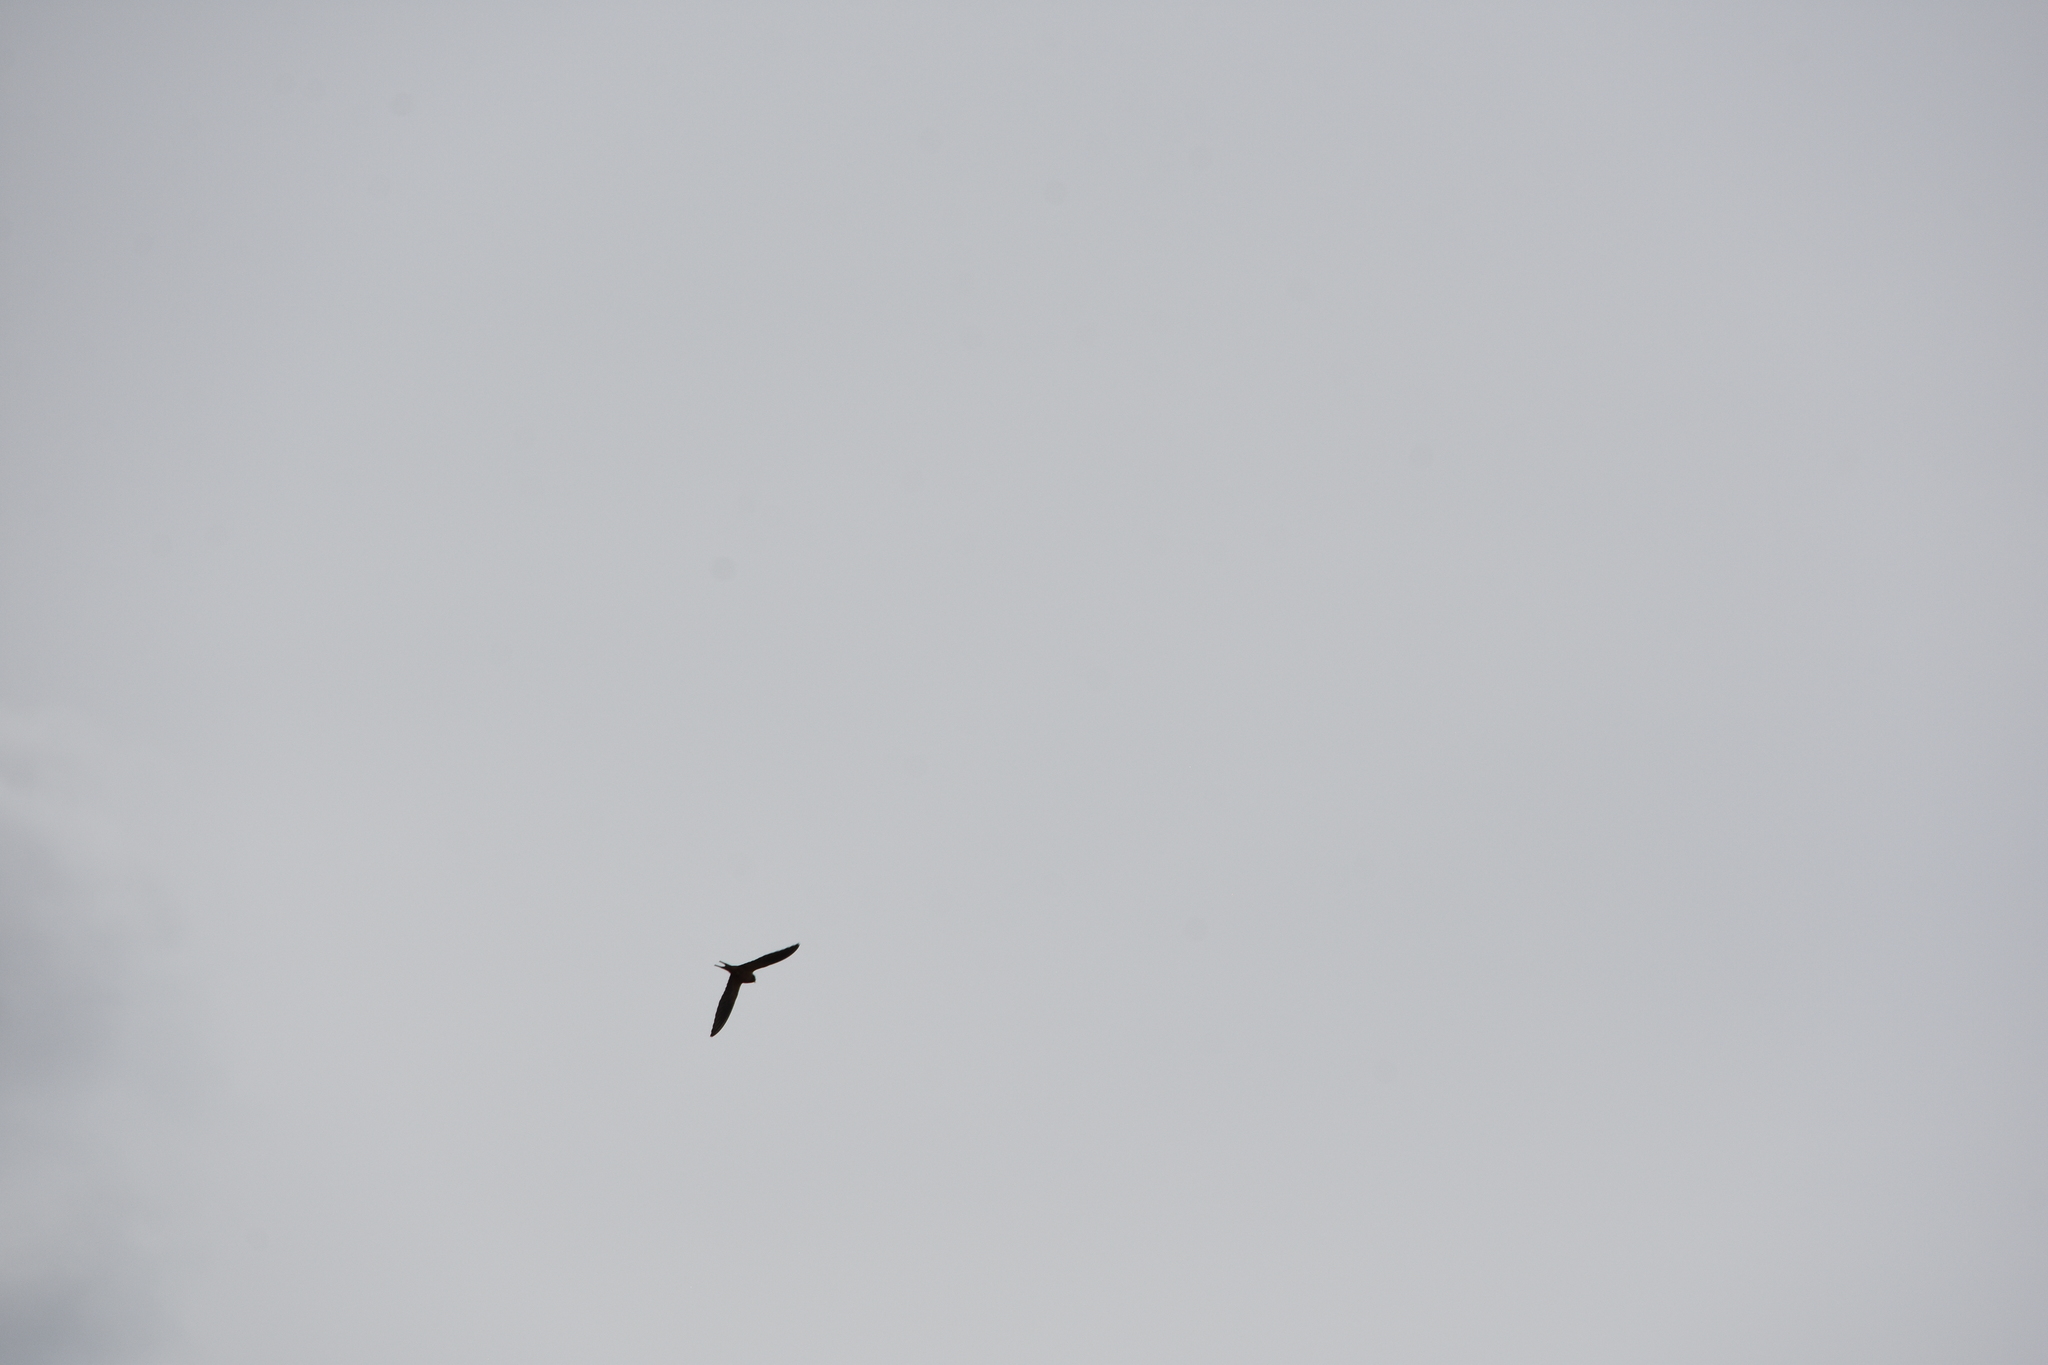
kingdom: Animalia
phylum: Chordata
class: Aves
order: Passeriformes
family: Hirundinidae
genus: Hirundo
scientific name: Hirundo rustica
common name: Barn swallow
